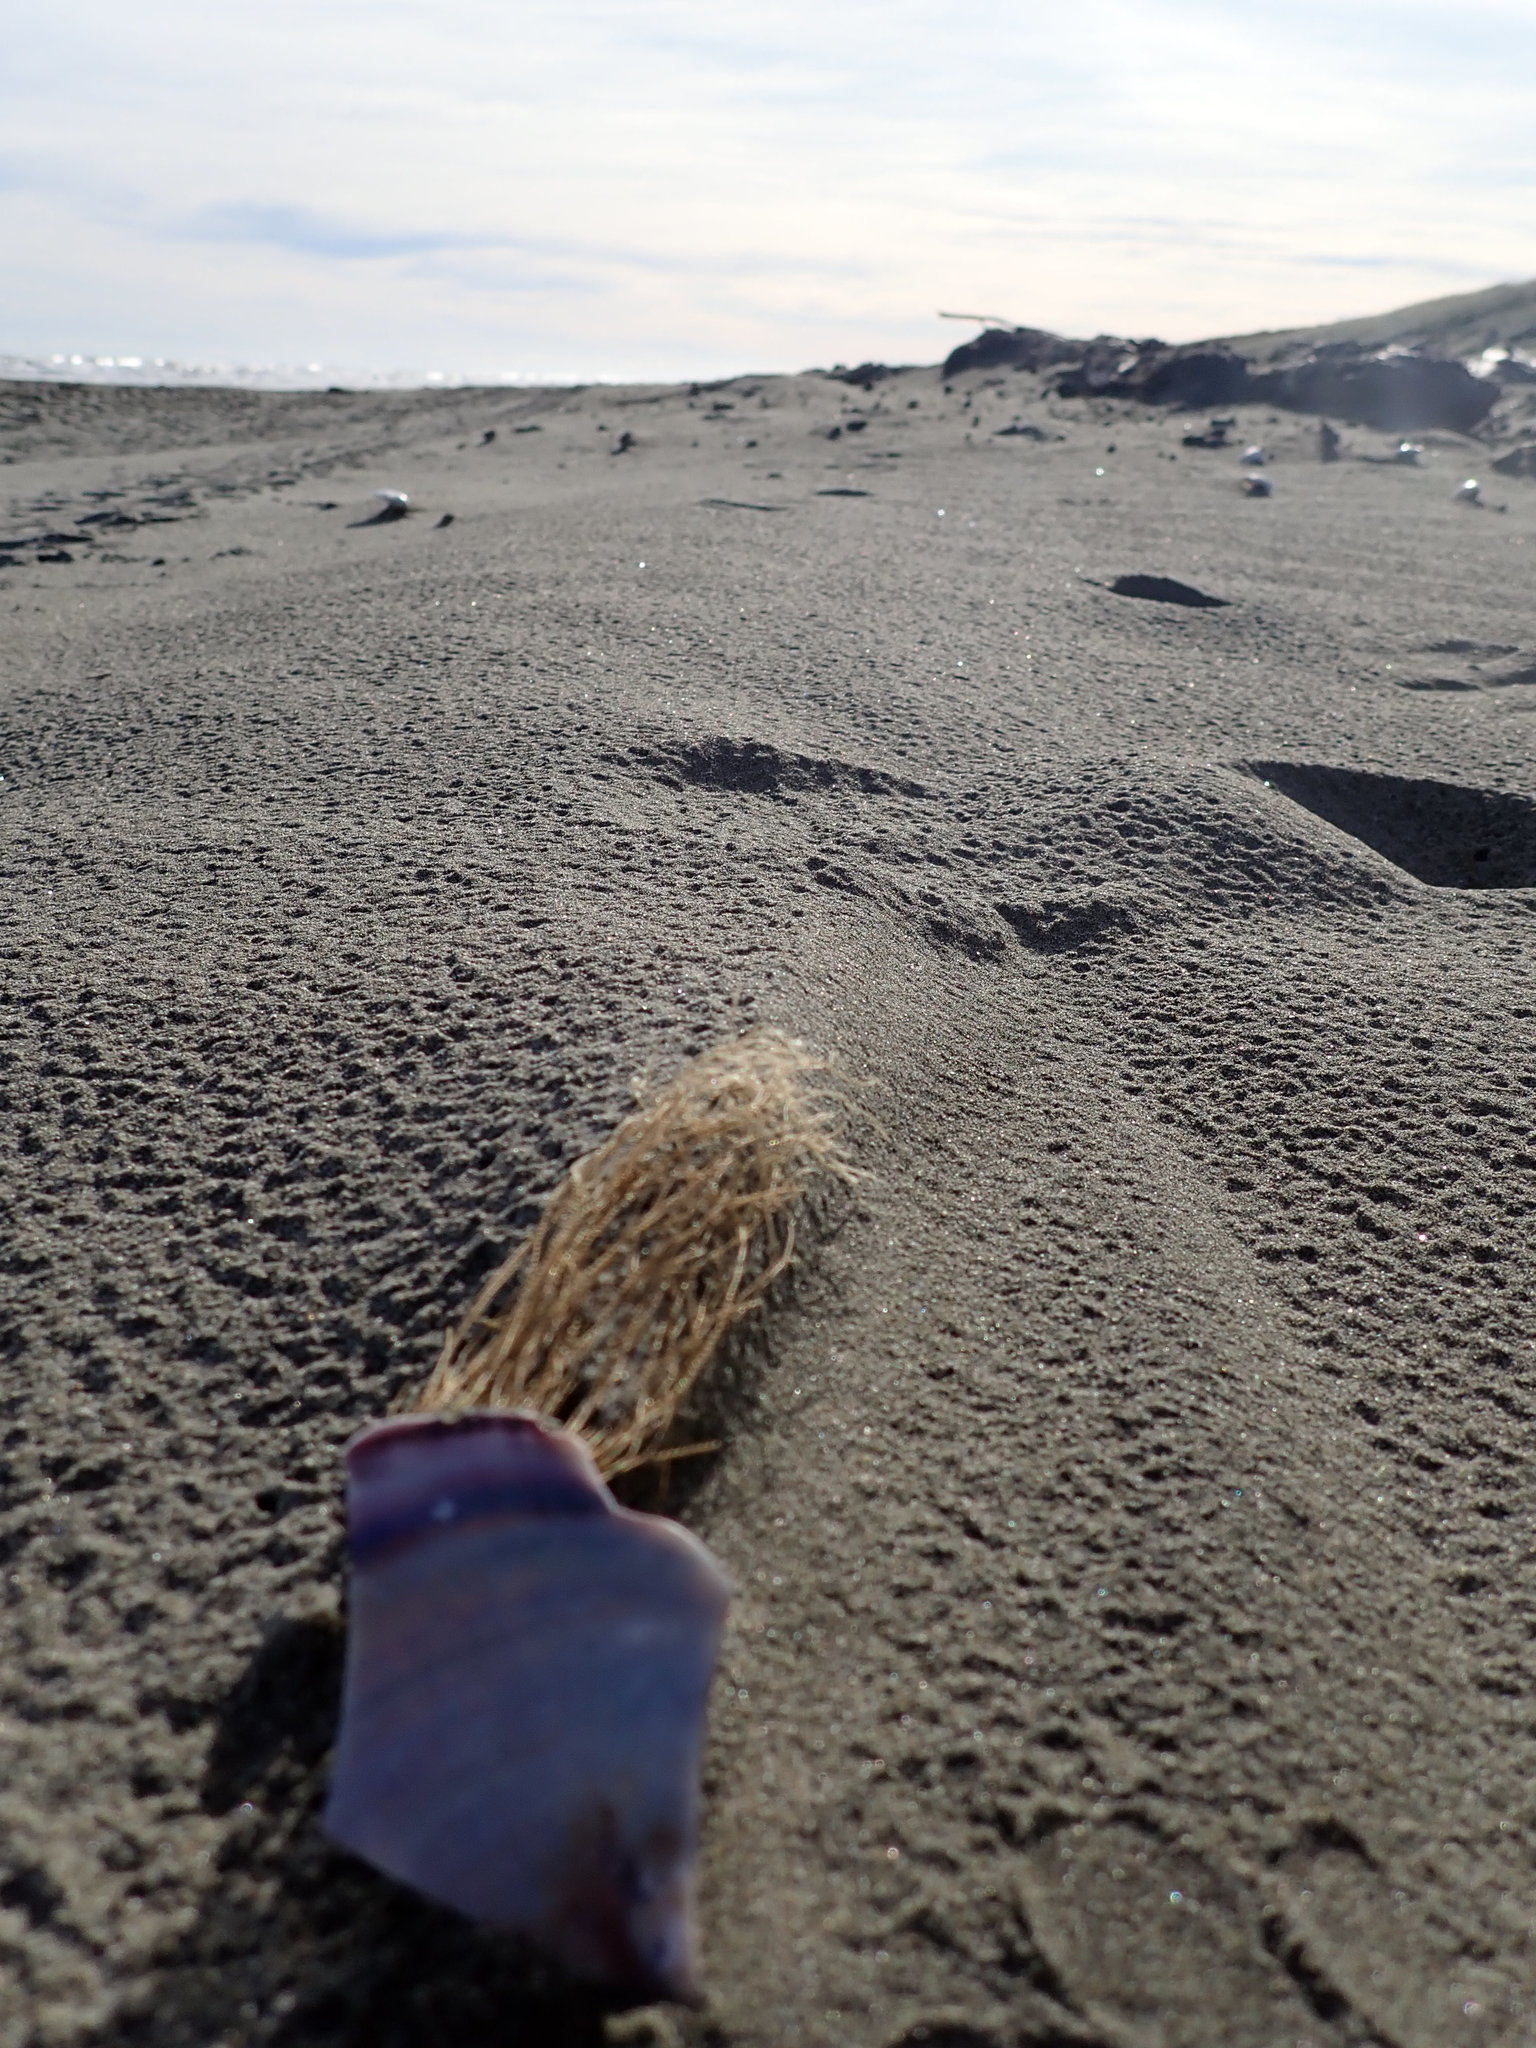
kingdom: Animalia
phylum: Cnidaria
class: Hydrozoa
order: Leptothecata
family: Sertulariidae
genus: Amphisbetia
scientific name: Amphisbetia bispinosa
